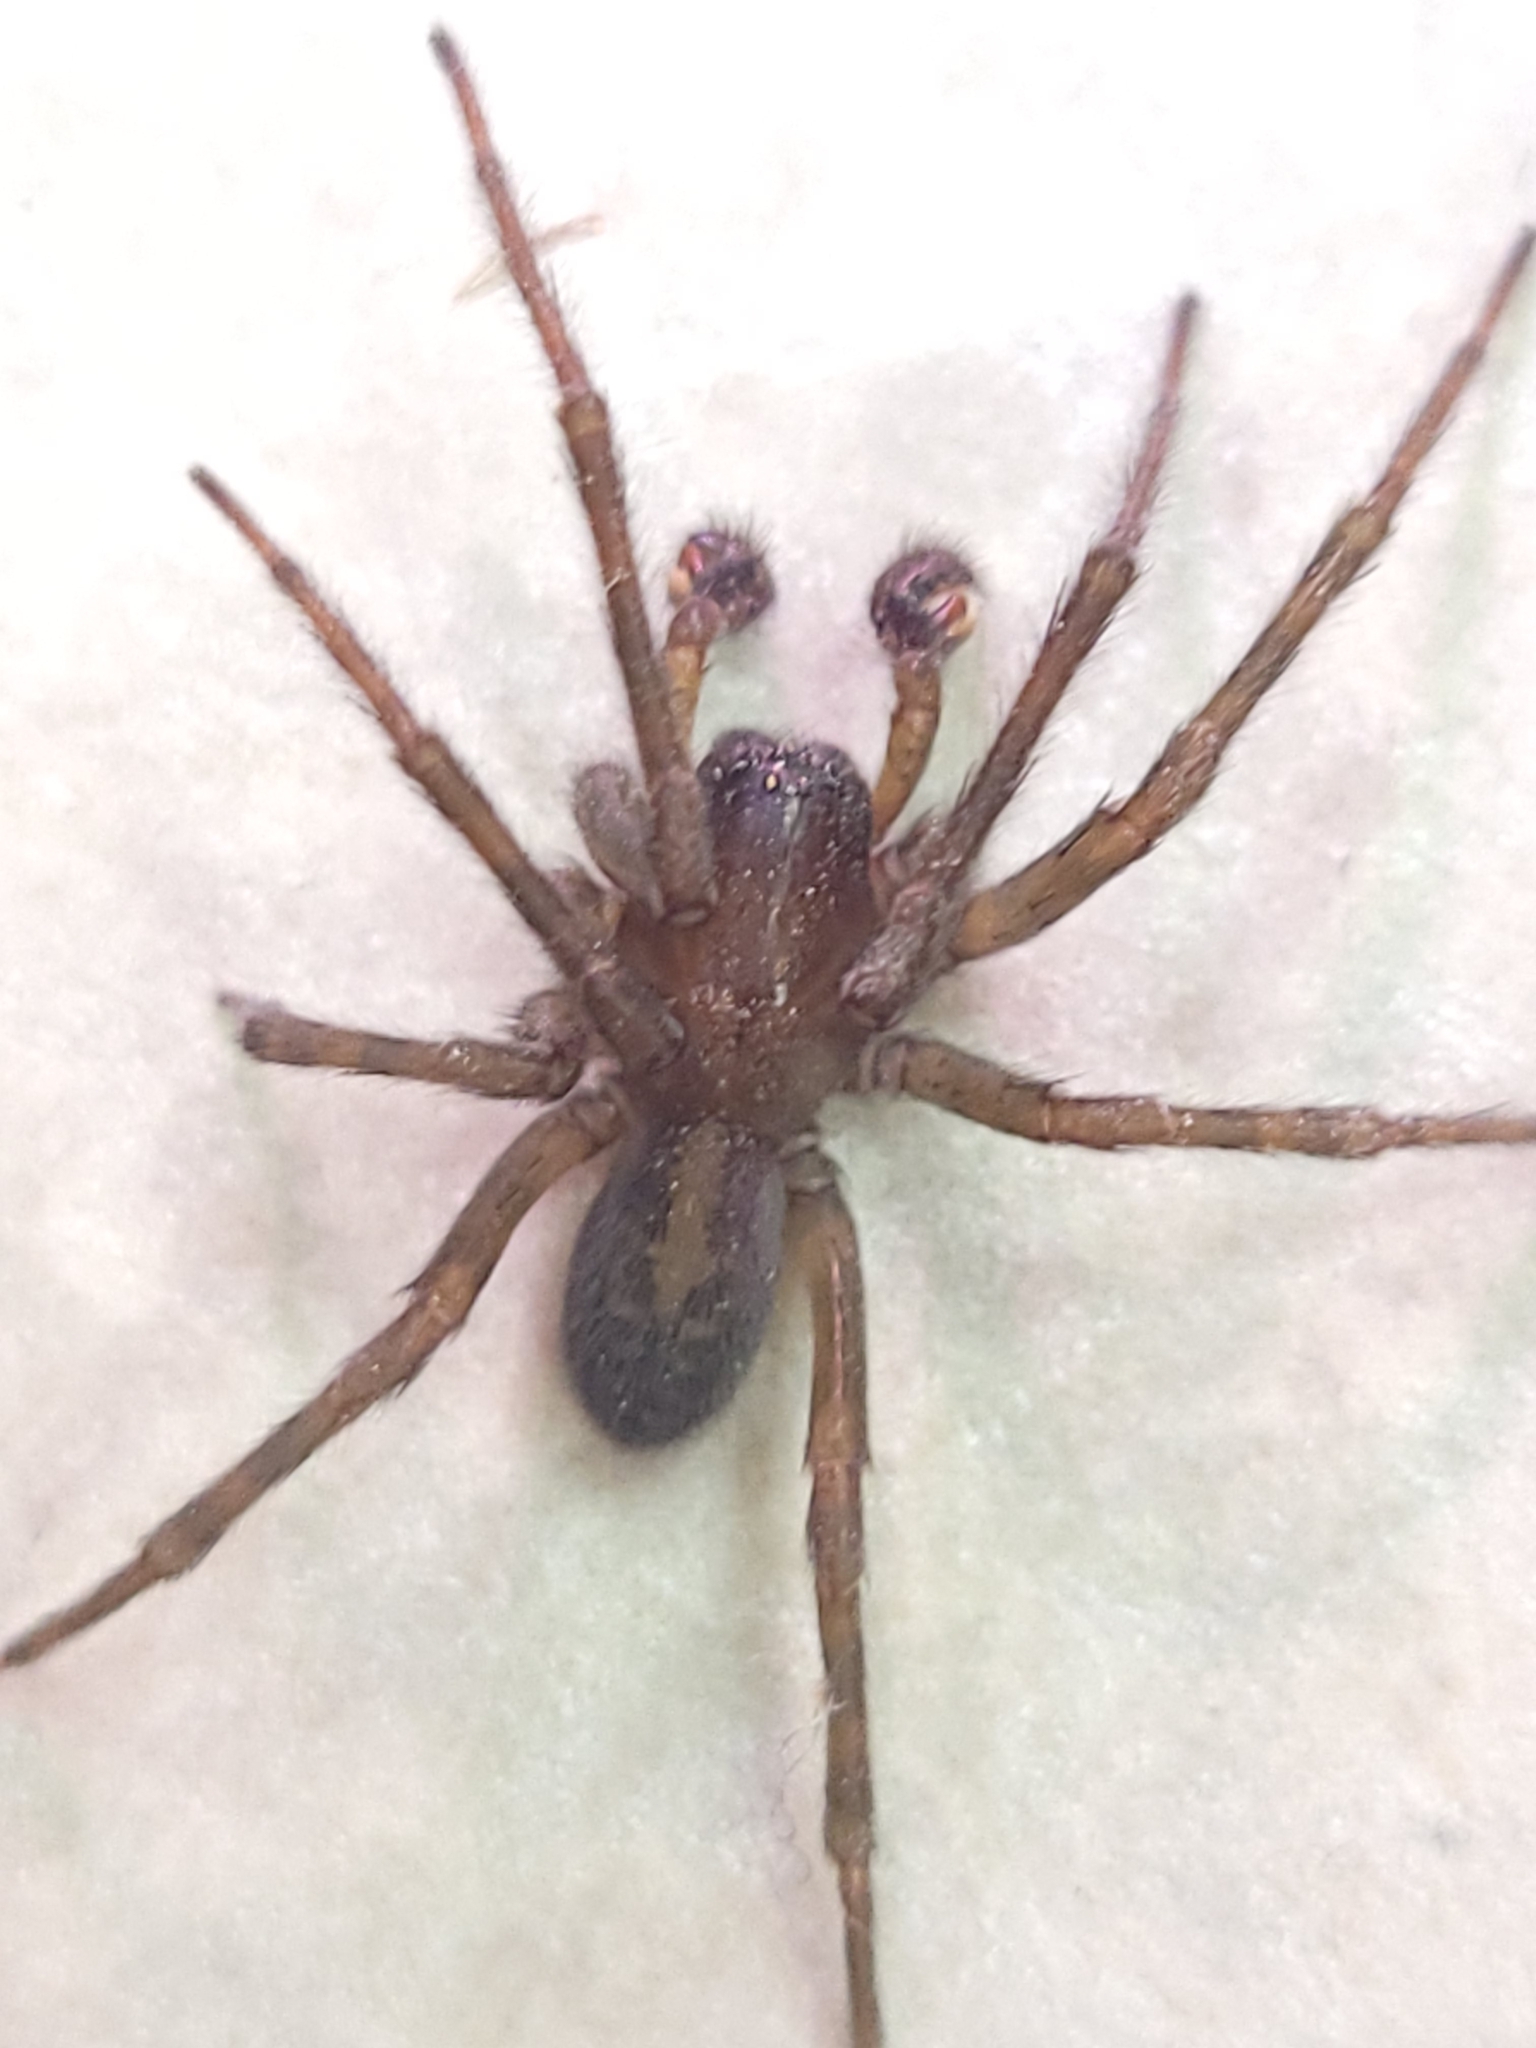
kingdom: Animalia
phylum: Arthropoda
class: Arachnida
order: Araneae
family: Amaurobiidae
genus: Amaurobius
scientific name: Amaurobius ferox
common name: Black laceweaver
